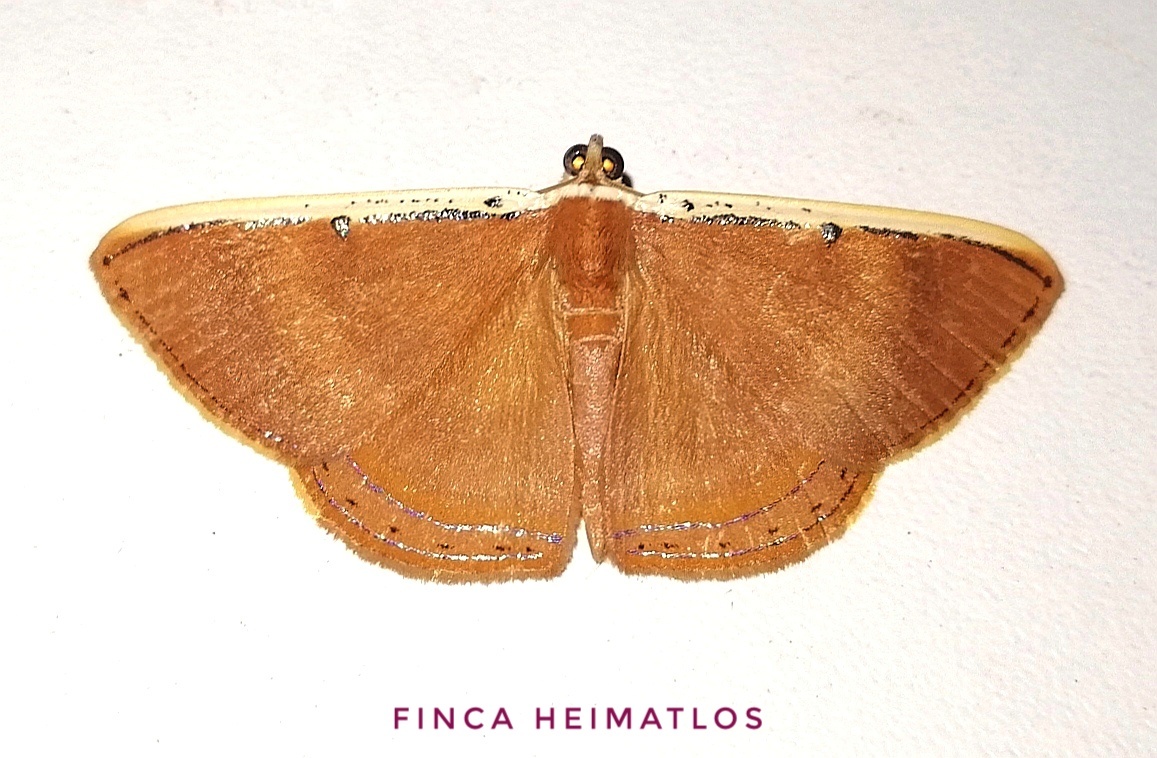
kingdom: Animalia
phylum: Arthropoda
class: Insecta
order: Lepidoptera
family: Geometridae
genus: Palyas
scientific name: Palyas micacearia
